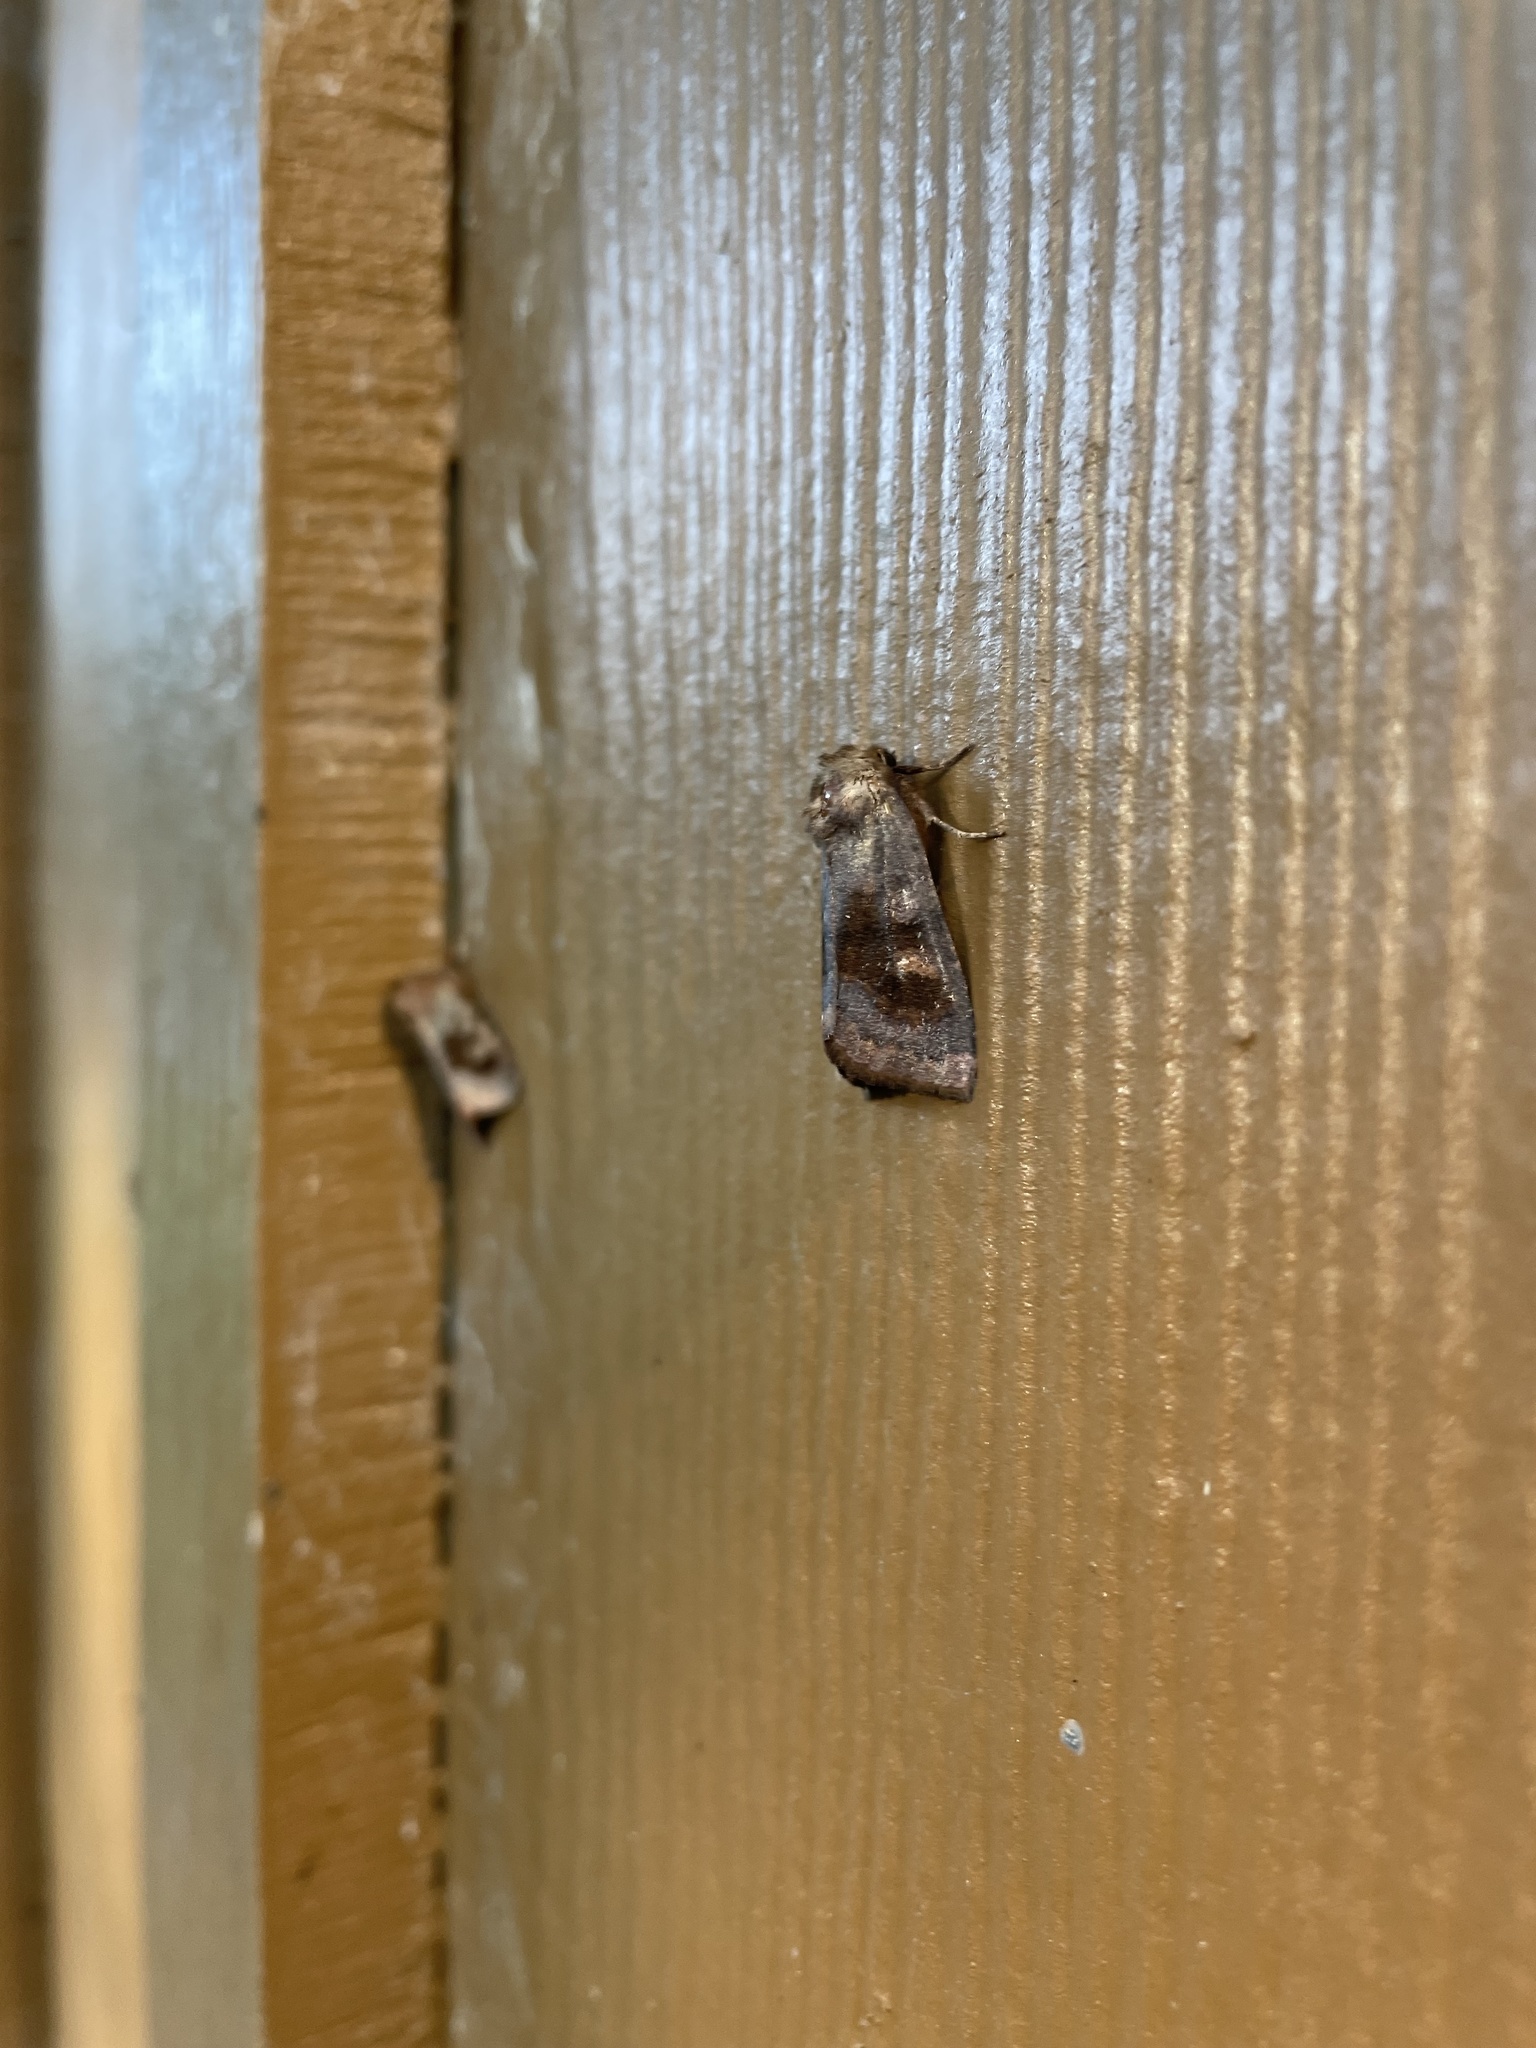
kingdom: Animalia
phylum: Arthropoda
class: Insecta
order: Lepidoptera
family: Noctuidae
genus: Nephelodes
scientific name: Nephelodes minians
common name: Bronzed cutworm
